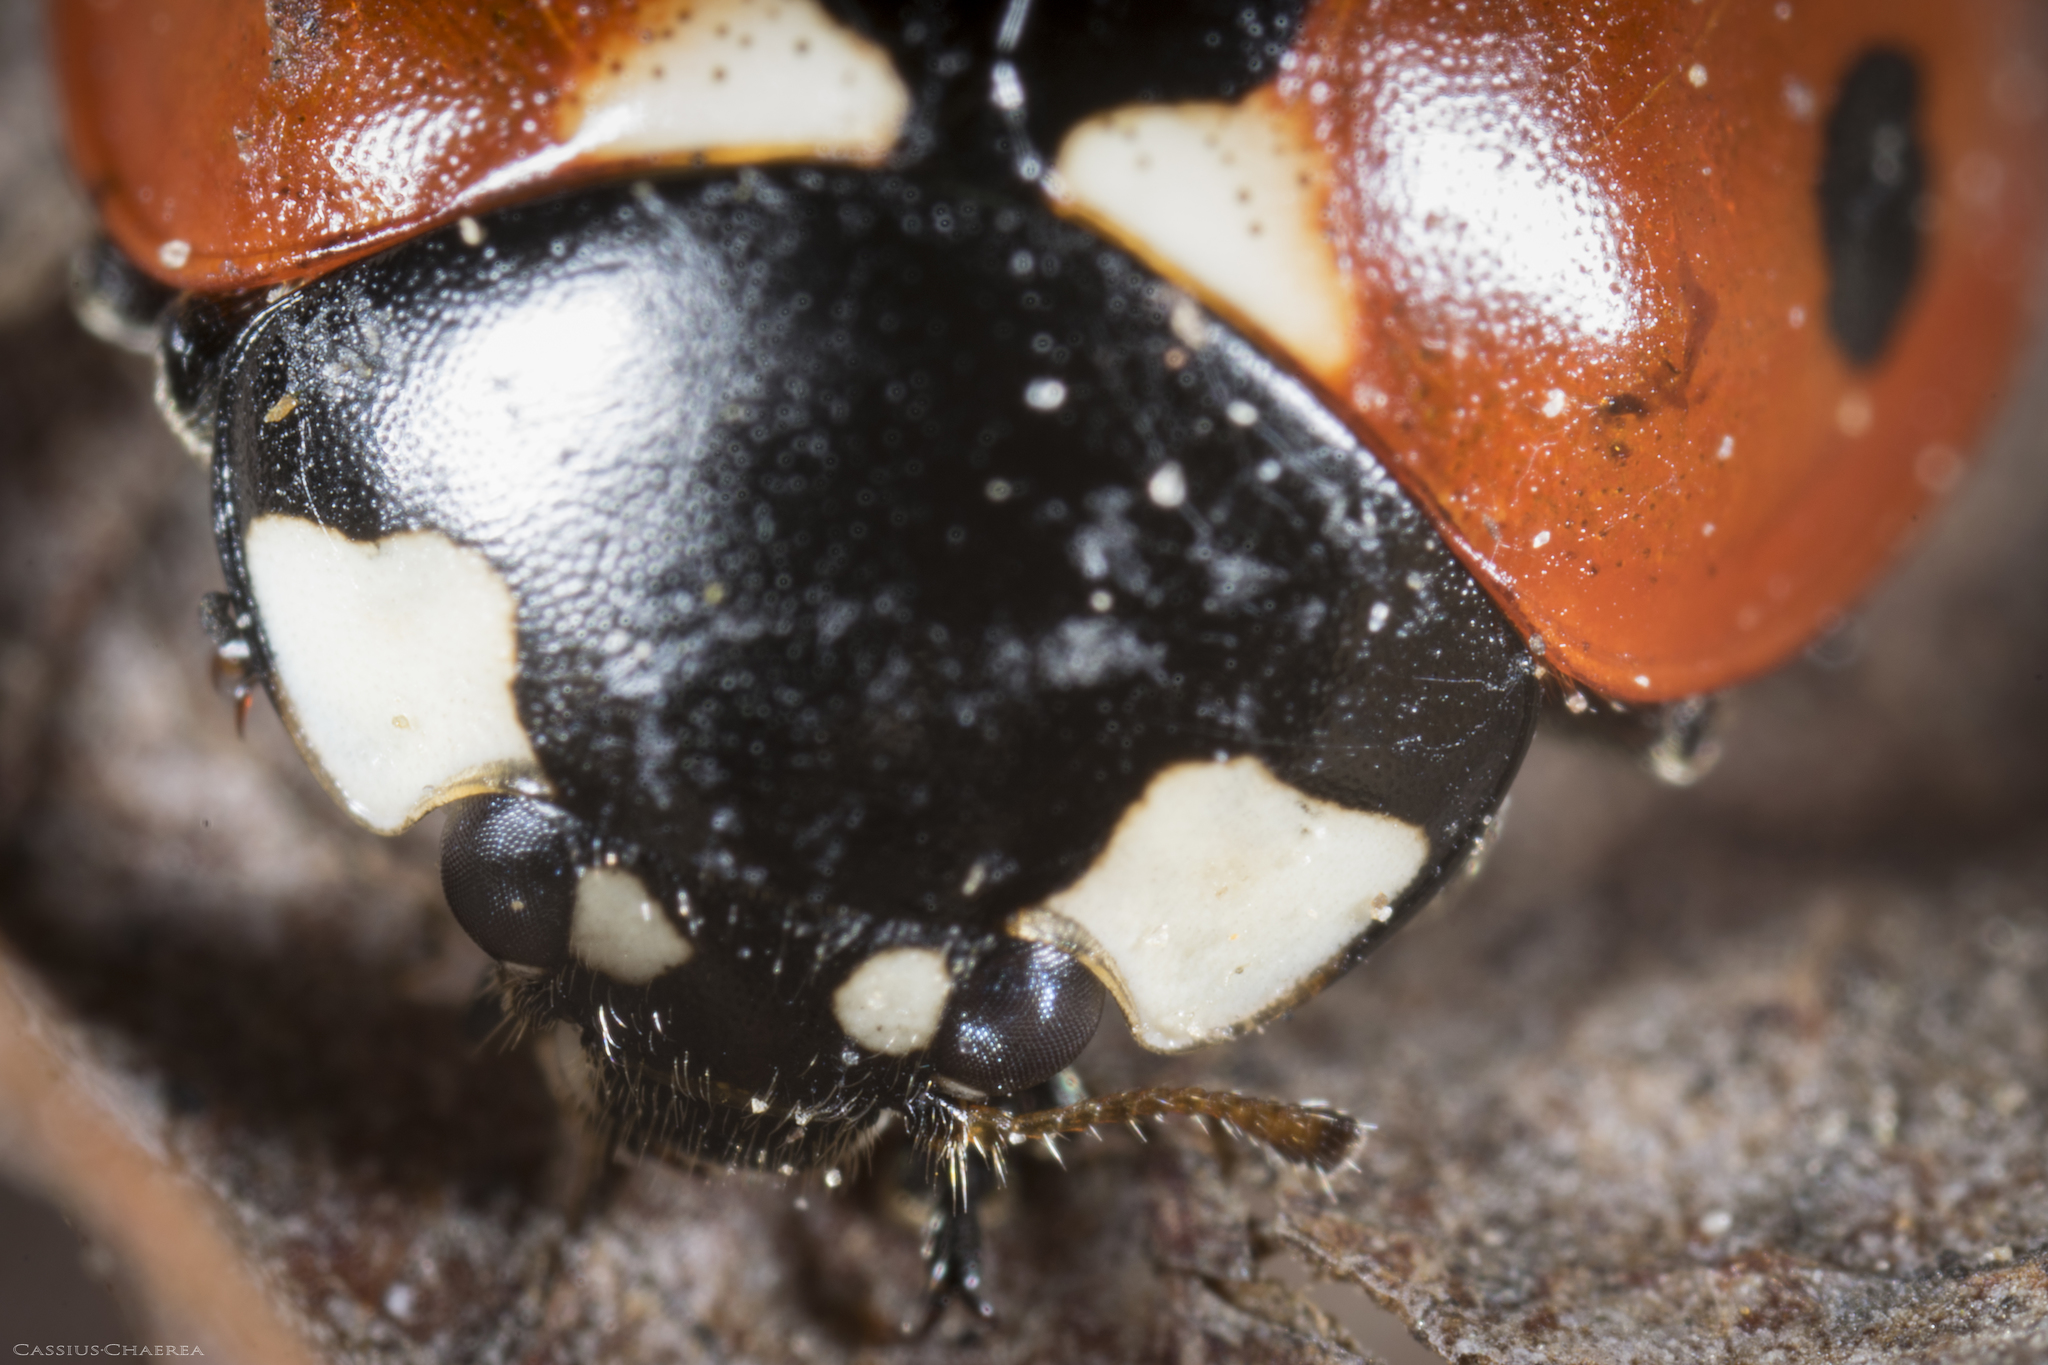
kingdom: Animalia
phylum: Arthropoda
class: Insecta
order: Coleoptera
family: Coccinellidae
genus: Coccinella
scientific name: Coccinella septempunctata
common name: Sevenspotted lady beetle
